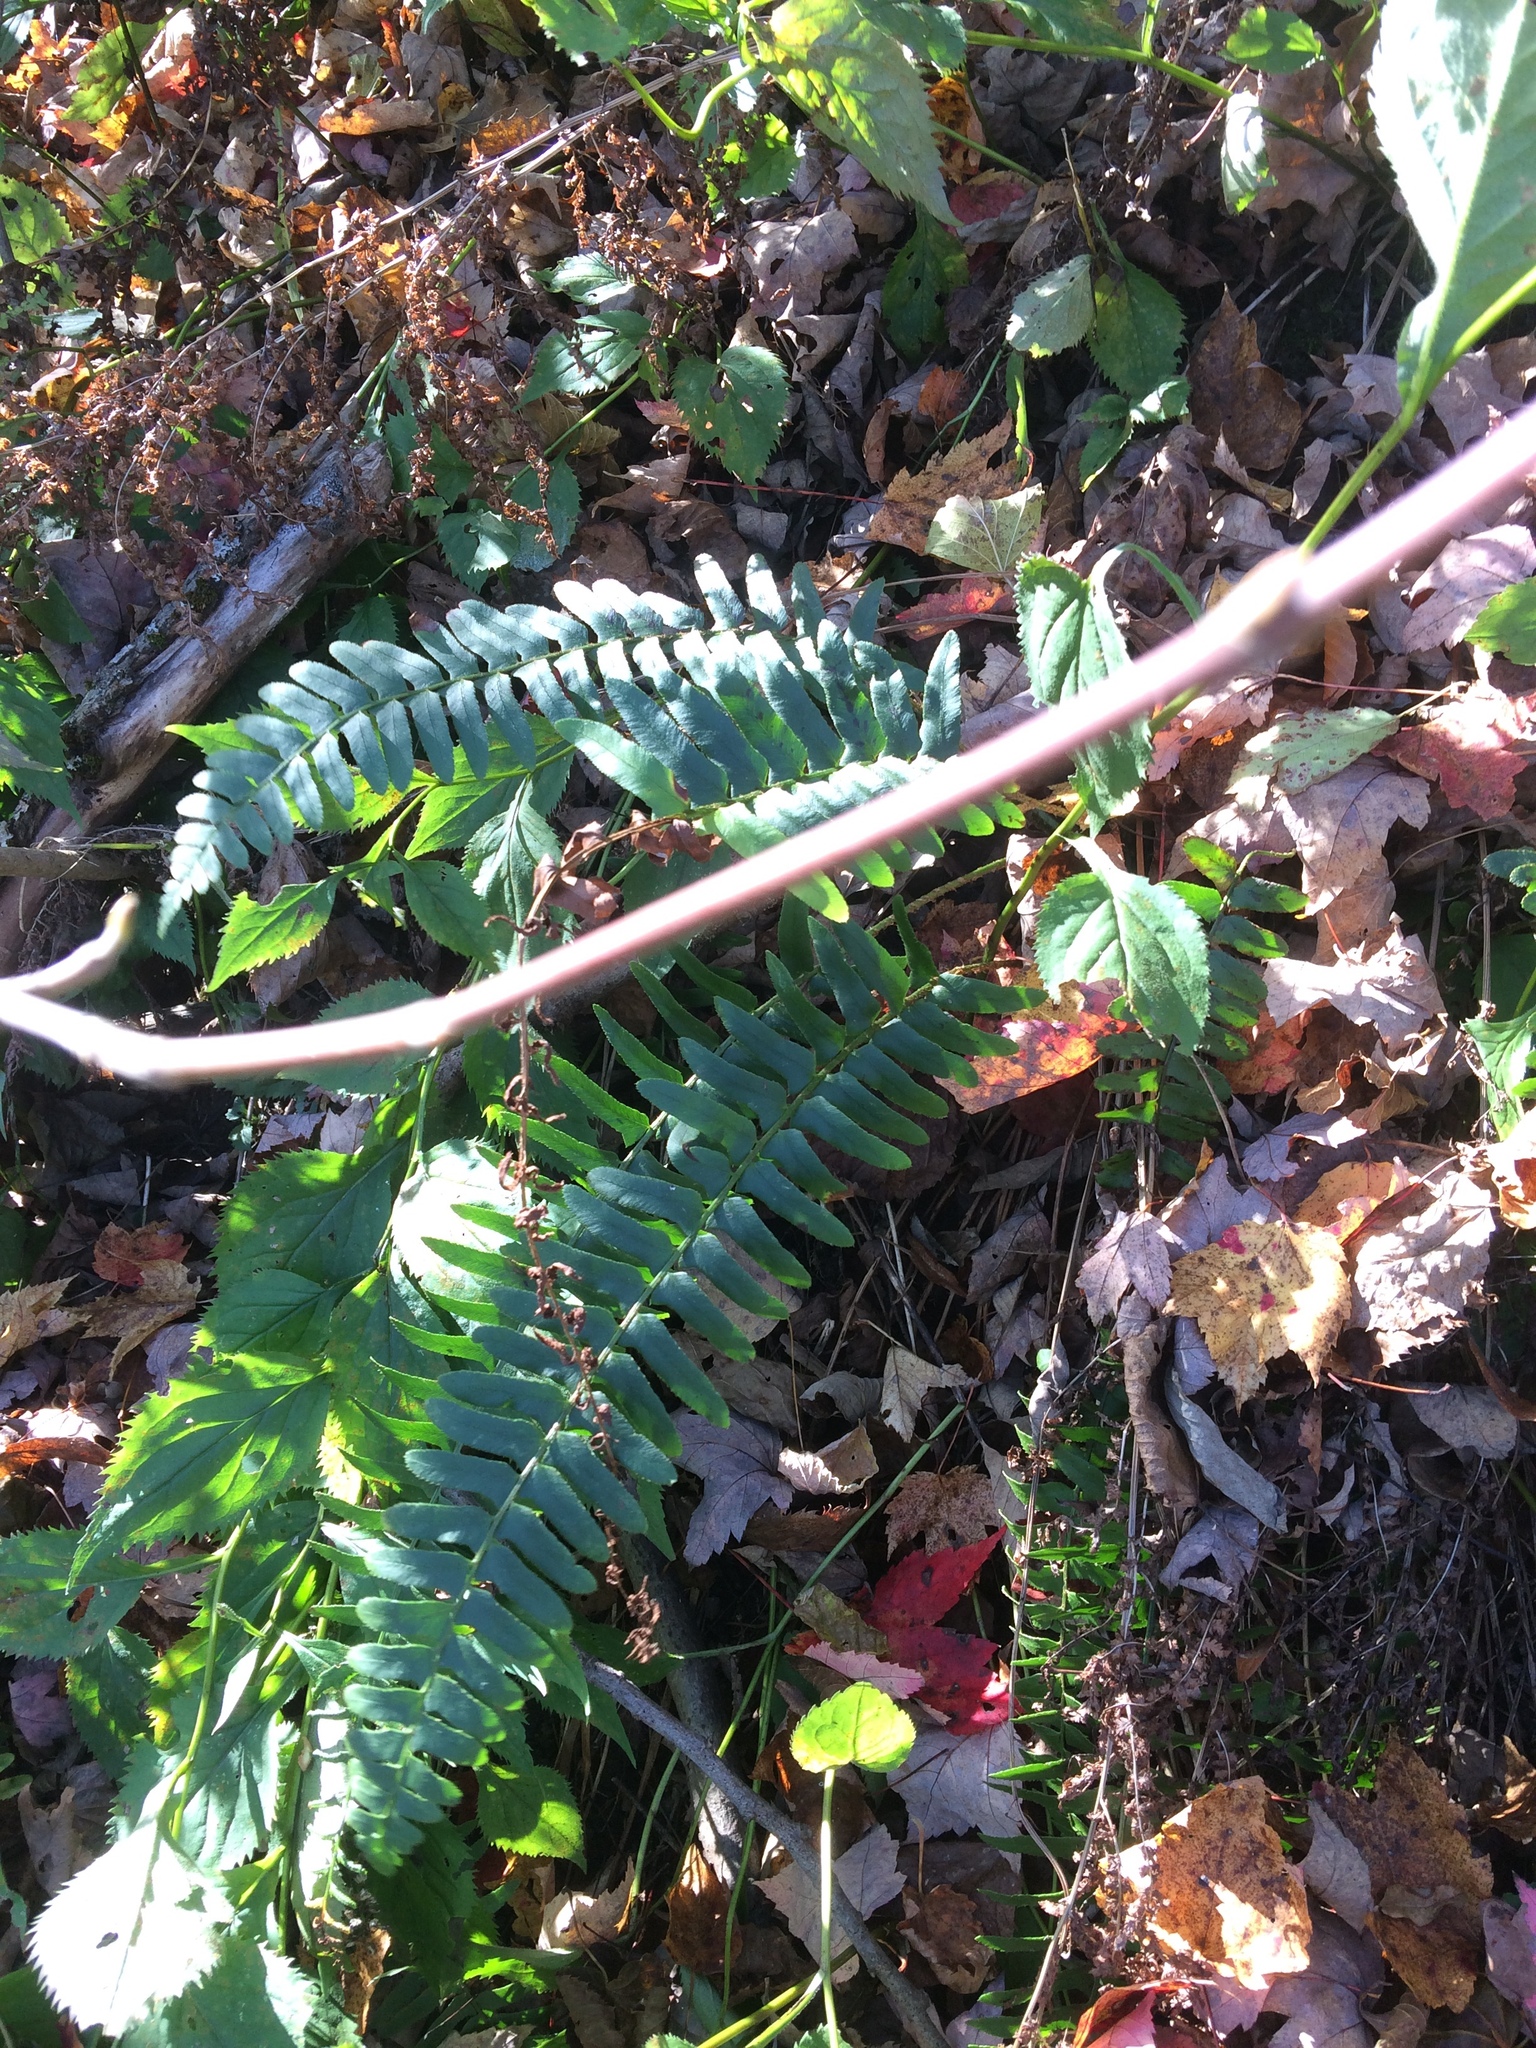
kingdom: Plantae
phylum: Tracheophyta
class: Polypodiopsida
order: Polypodiales
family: Dryopteridaceae
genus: Polystichum
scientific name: Polystichum acrostichoides
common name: Christmas fern
